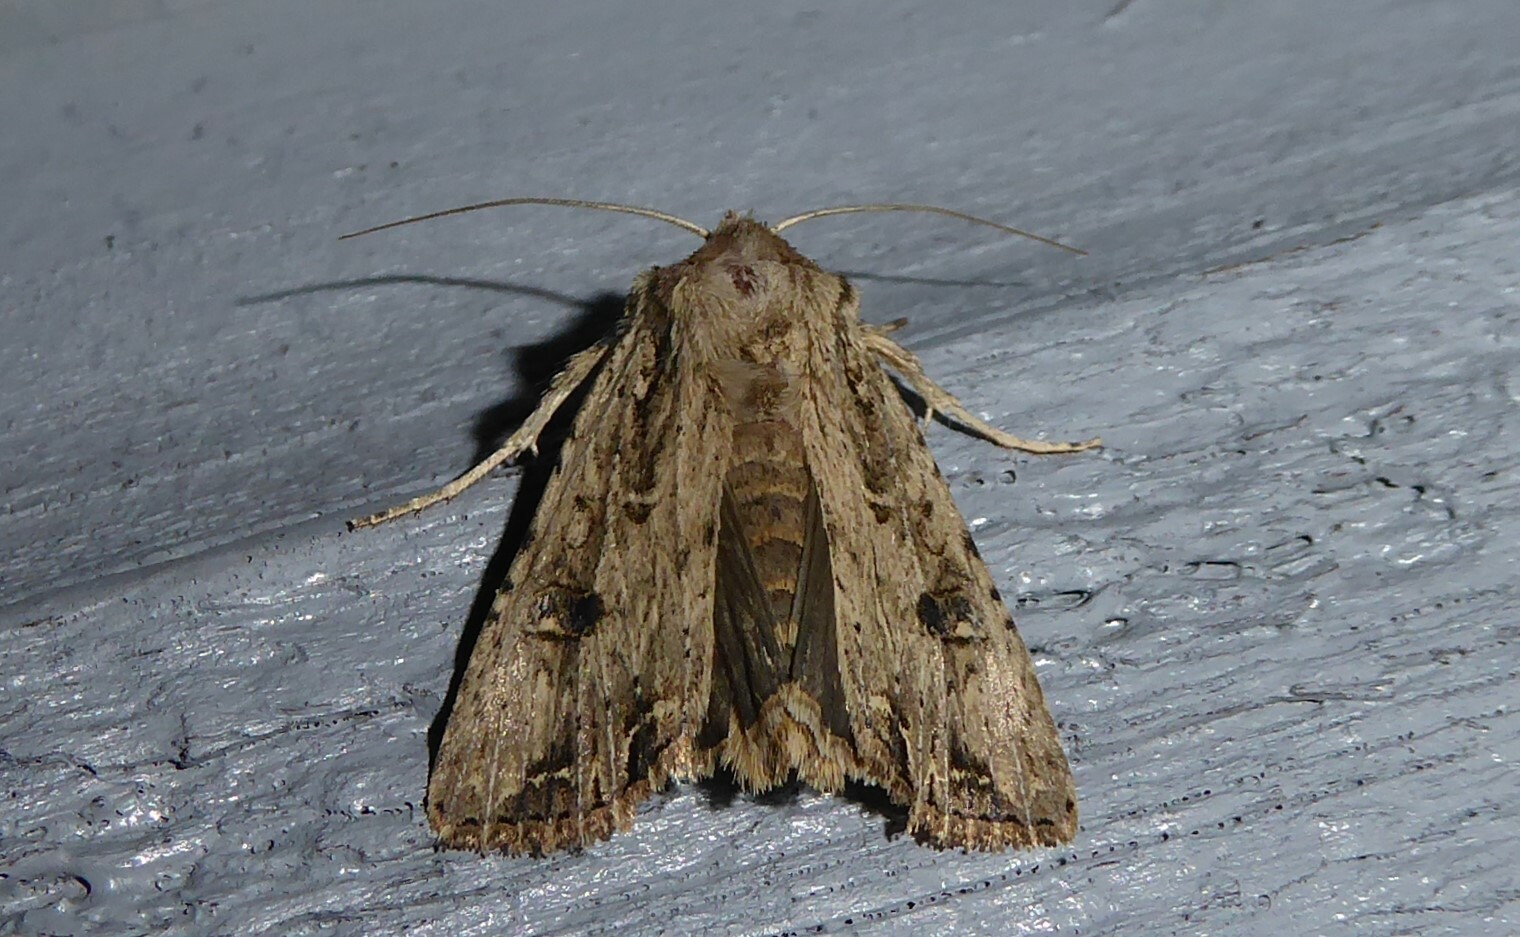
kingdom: Animalia
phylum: Arthropoda
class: Insecta
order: Lepidoptera
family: Noctuidae
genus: Ichneutica
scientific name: Ichneutica lignana
